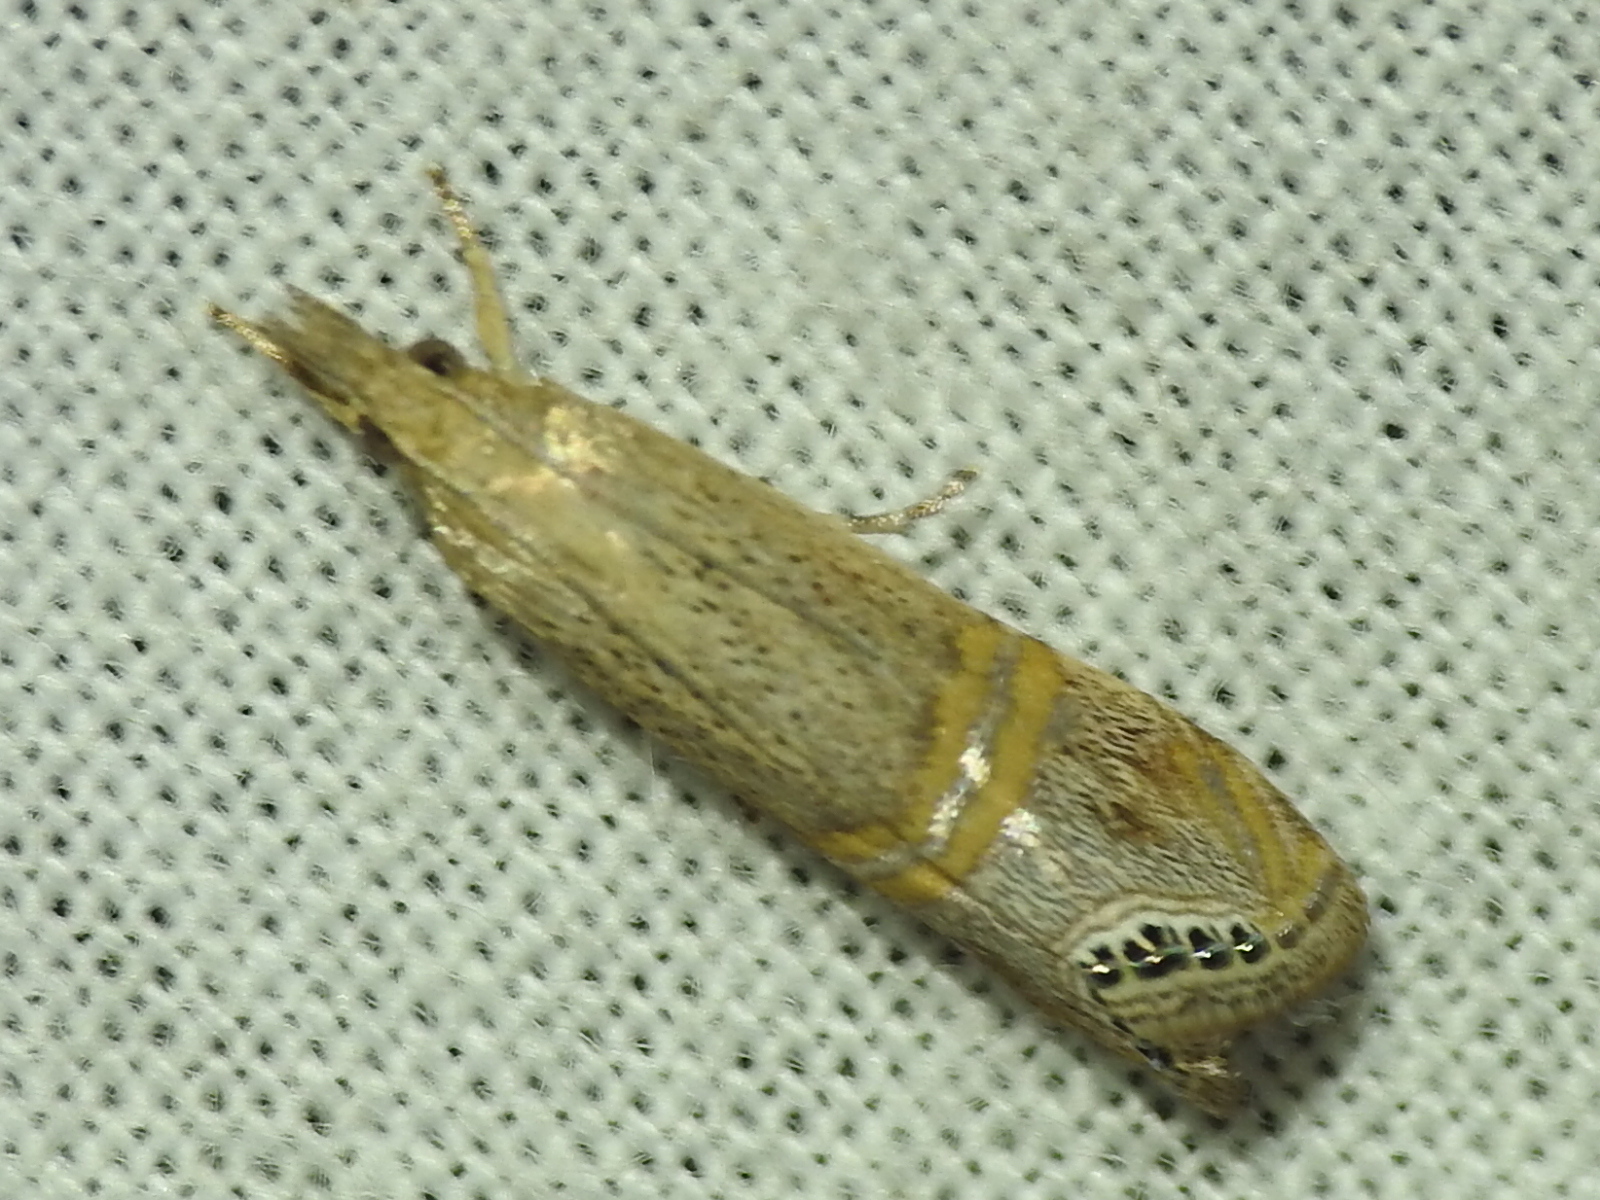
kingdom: Animalia
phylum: Arthropoda
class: Insecta
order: Lepidoptera
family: Crambidae
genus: Euchromius
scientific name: Euchromius ocellea
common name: Necklace veneer moth
